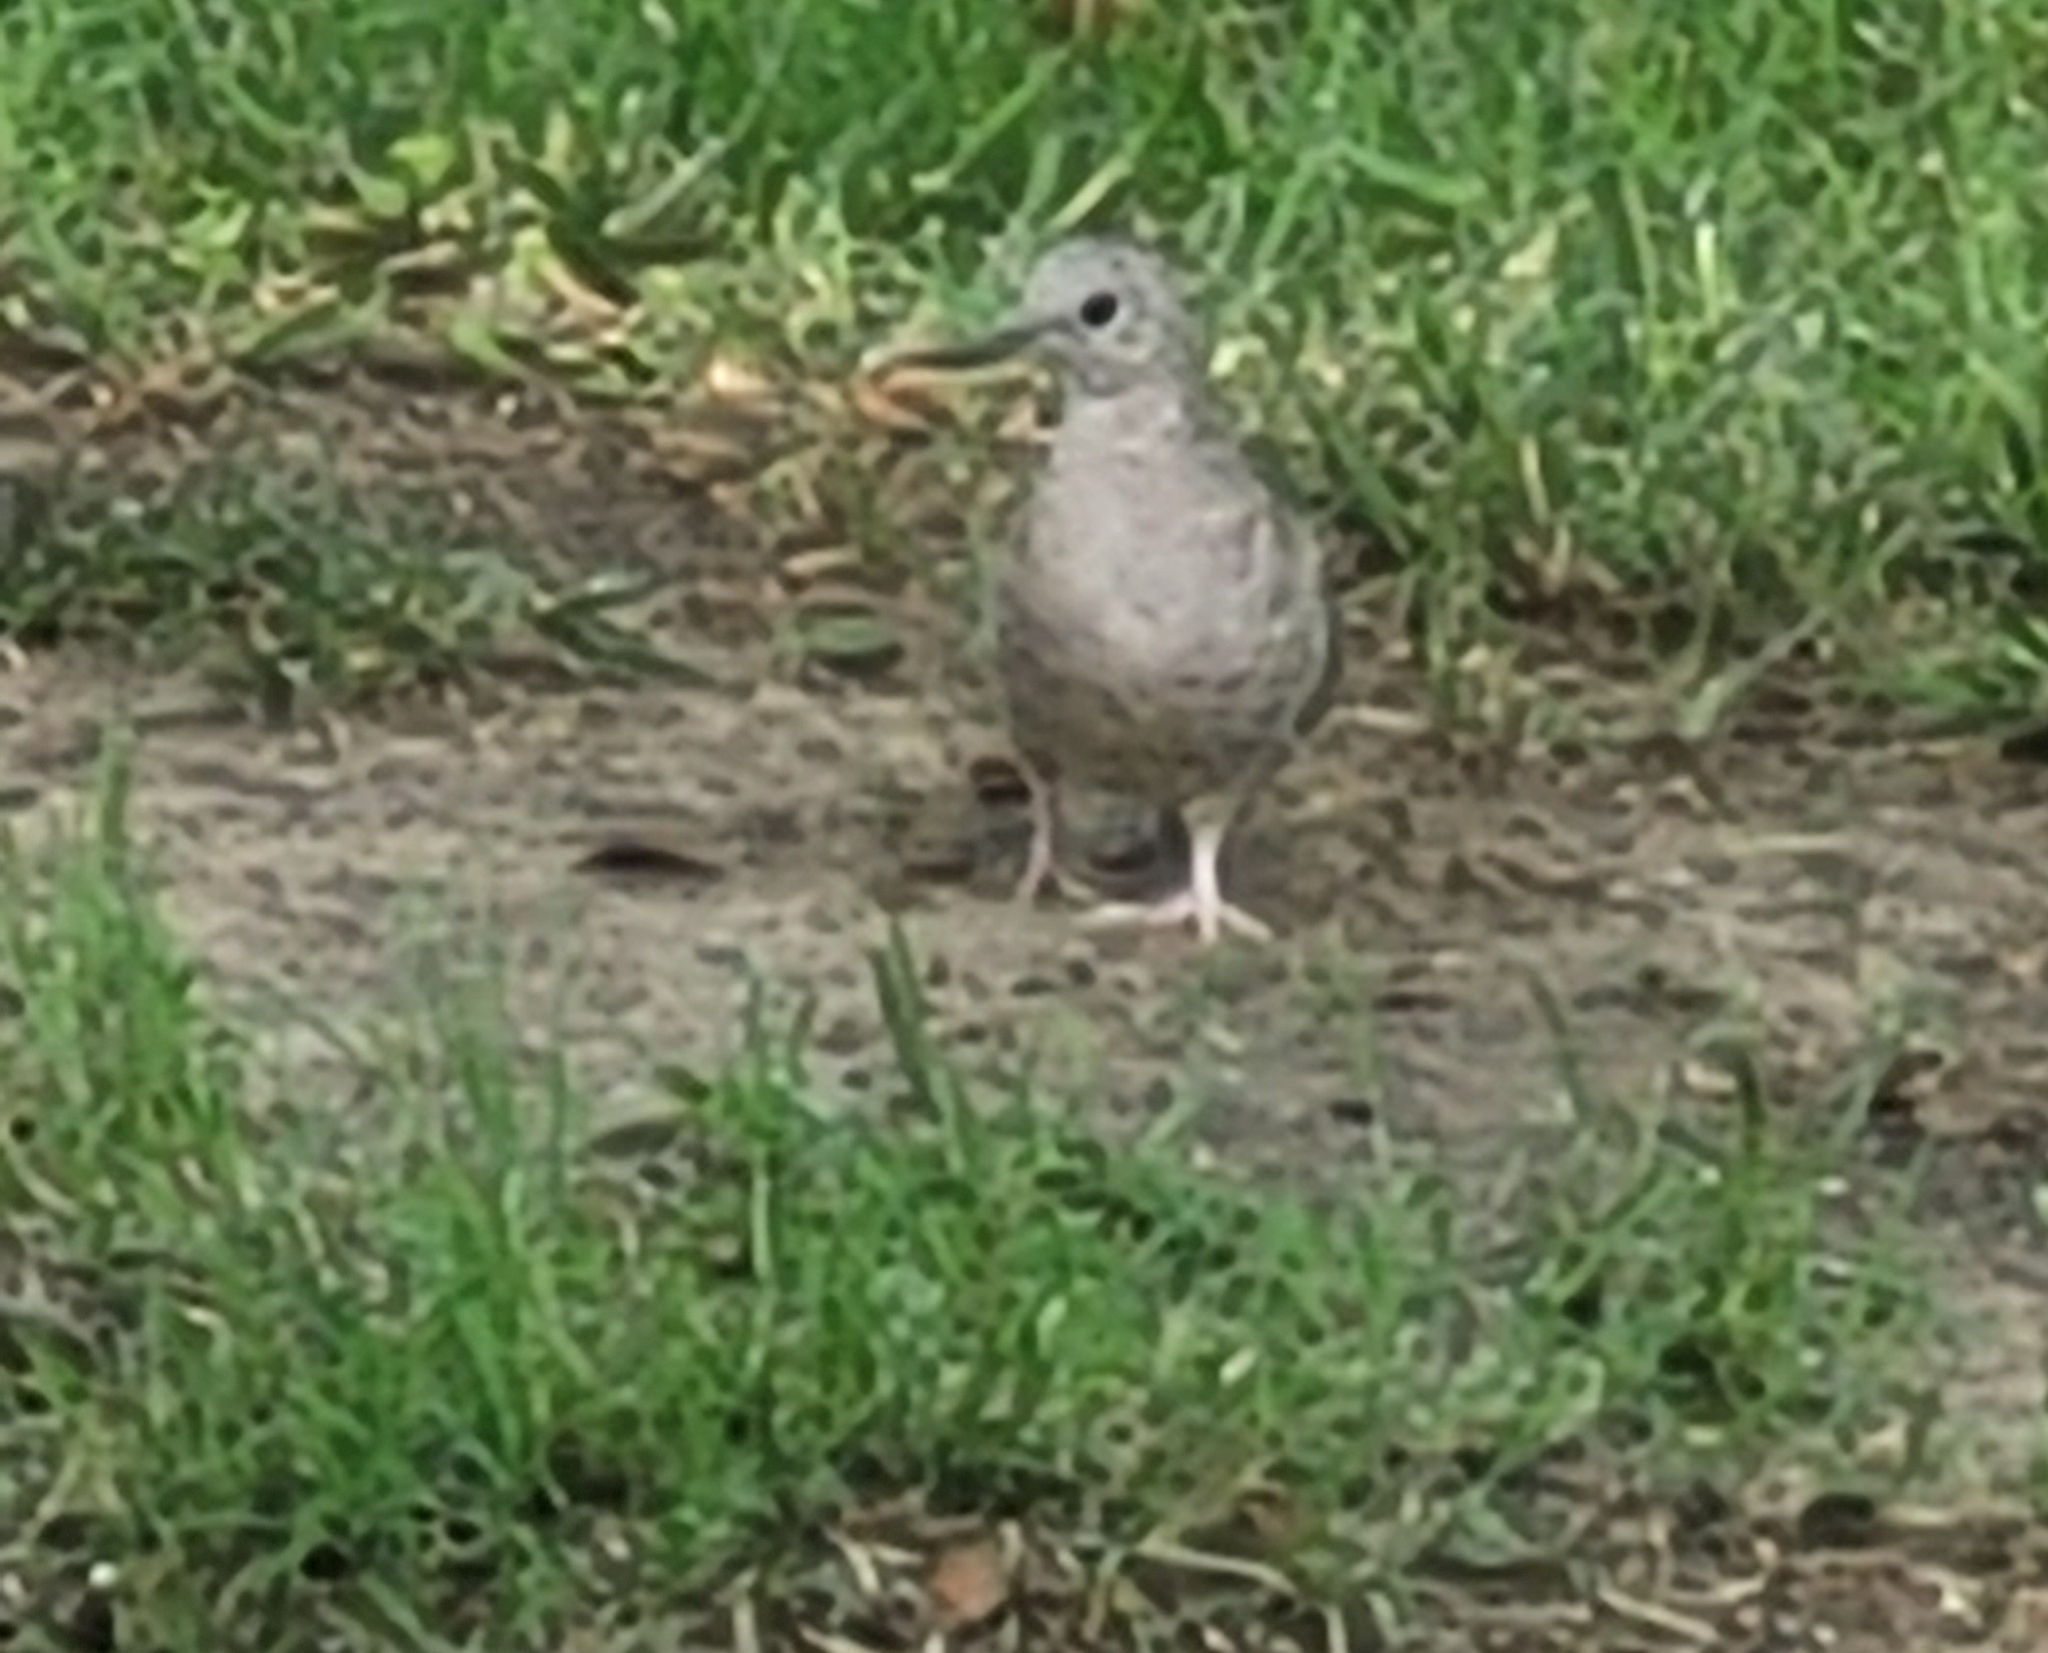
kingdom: Animalia
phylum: Chordata
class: Aves
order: Columbiformes
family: Columbidae
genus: Columbina
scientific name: Columbina inca
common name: Inca dove
